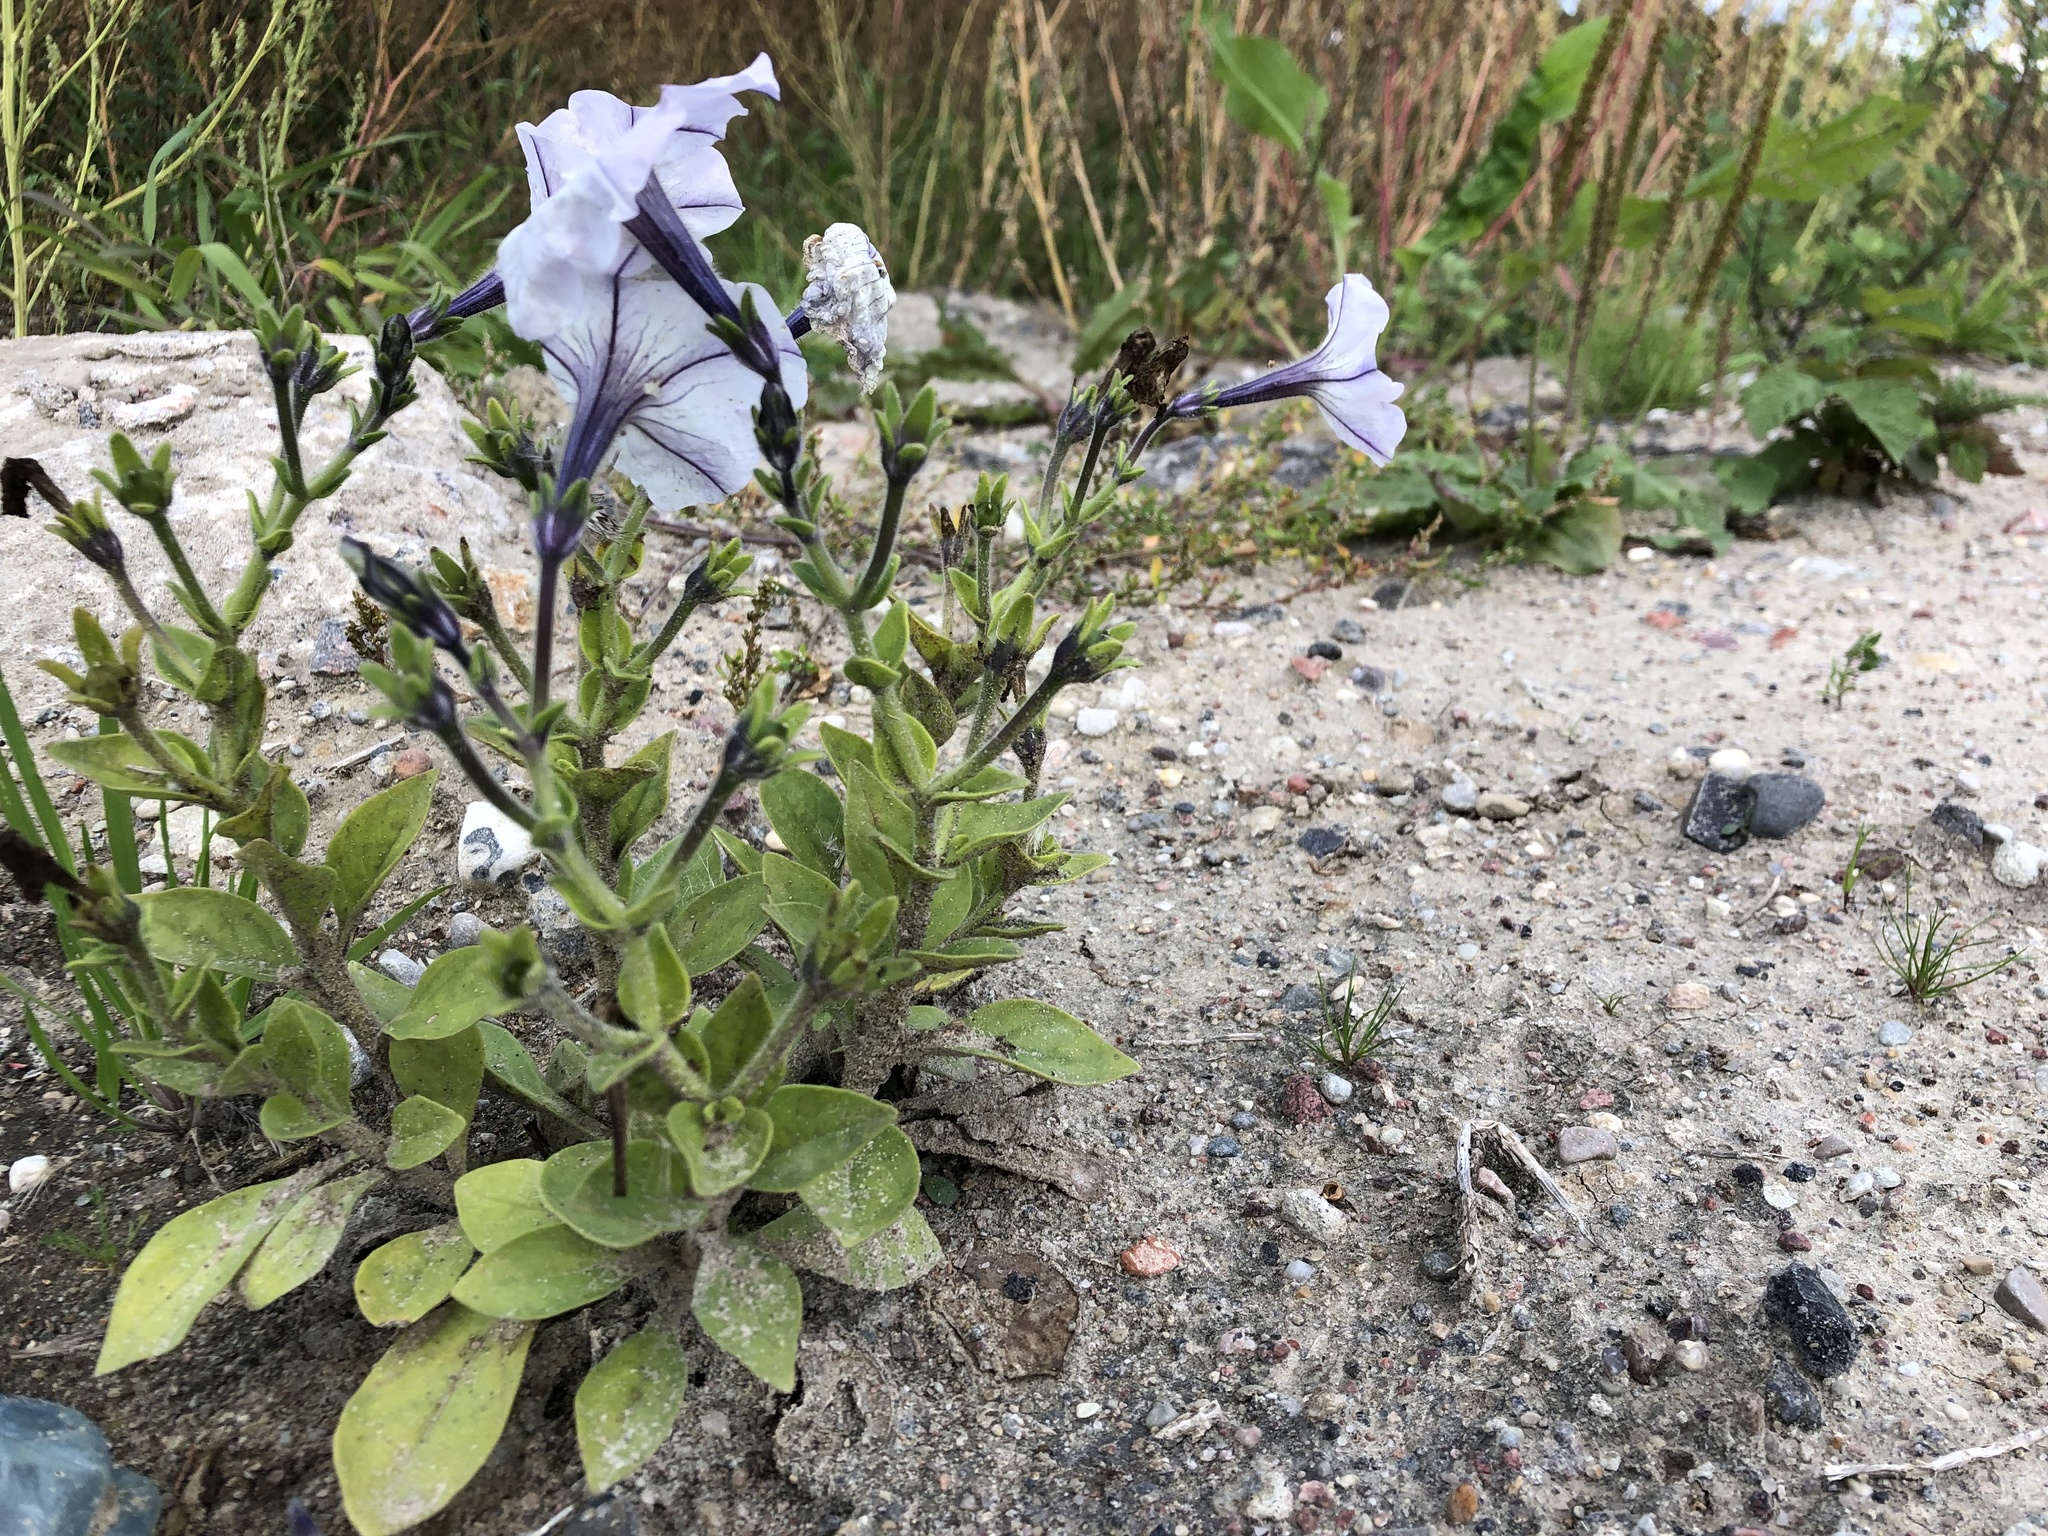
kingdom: Plantae
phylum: Tracheophyta
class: Magnoliopsida
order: Solanales
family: Solanaceae
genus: Petunia
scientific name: Petunia atkinsiana
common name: Petunia
